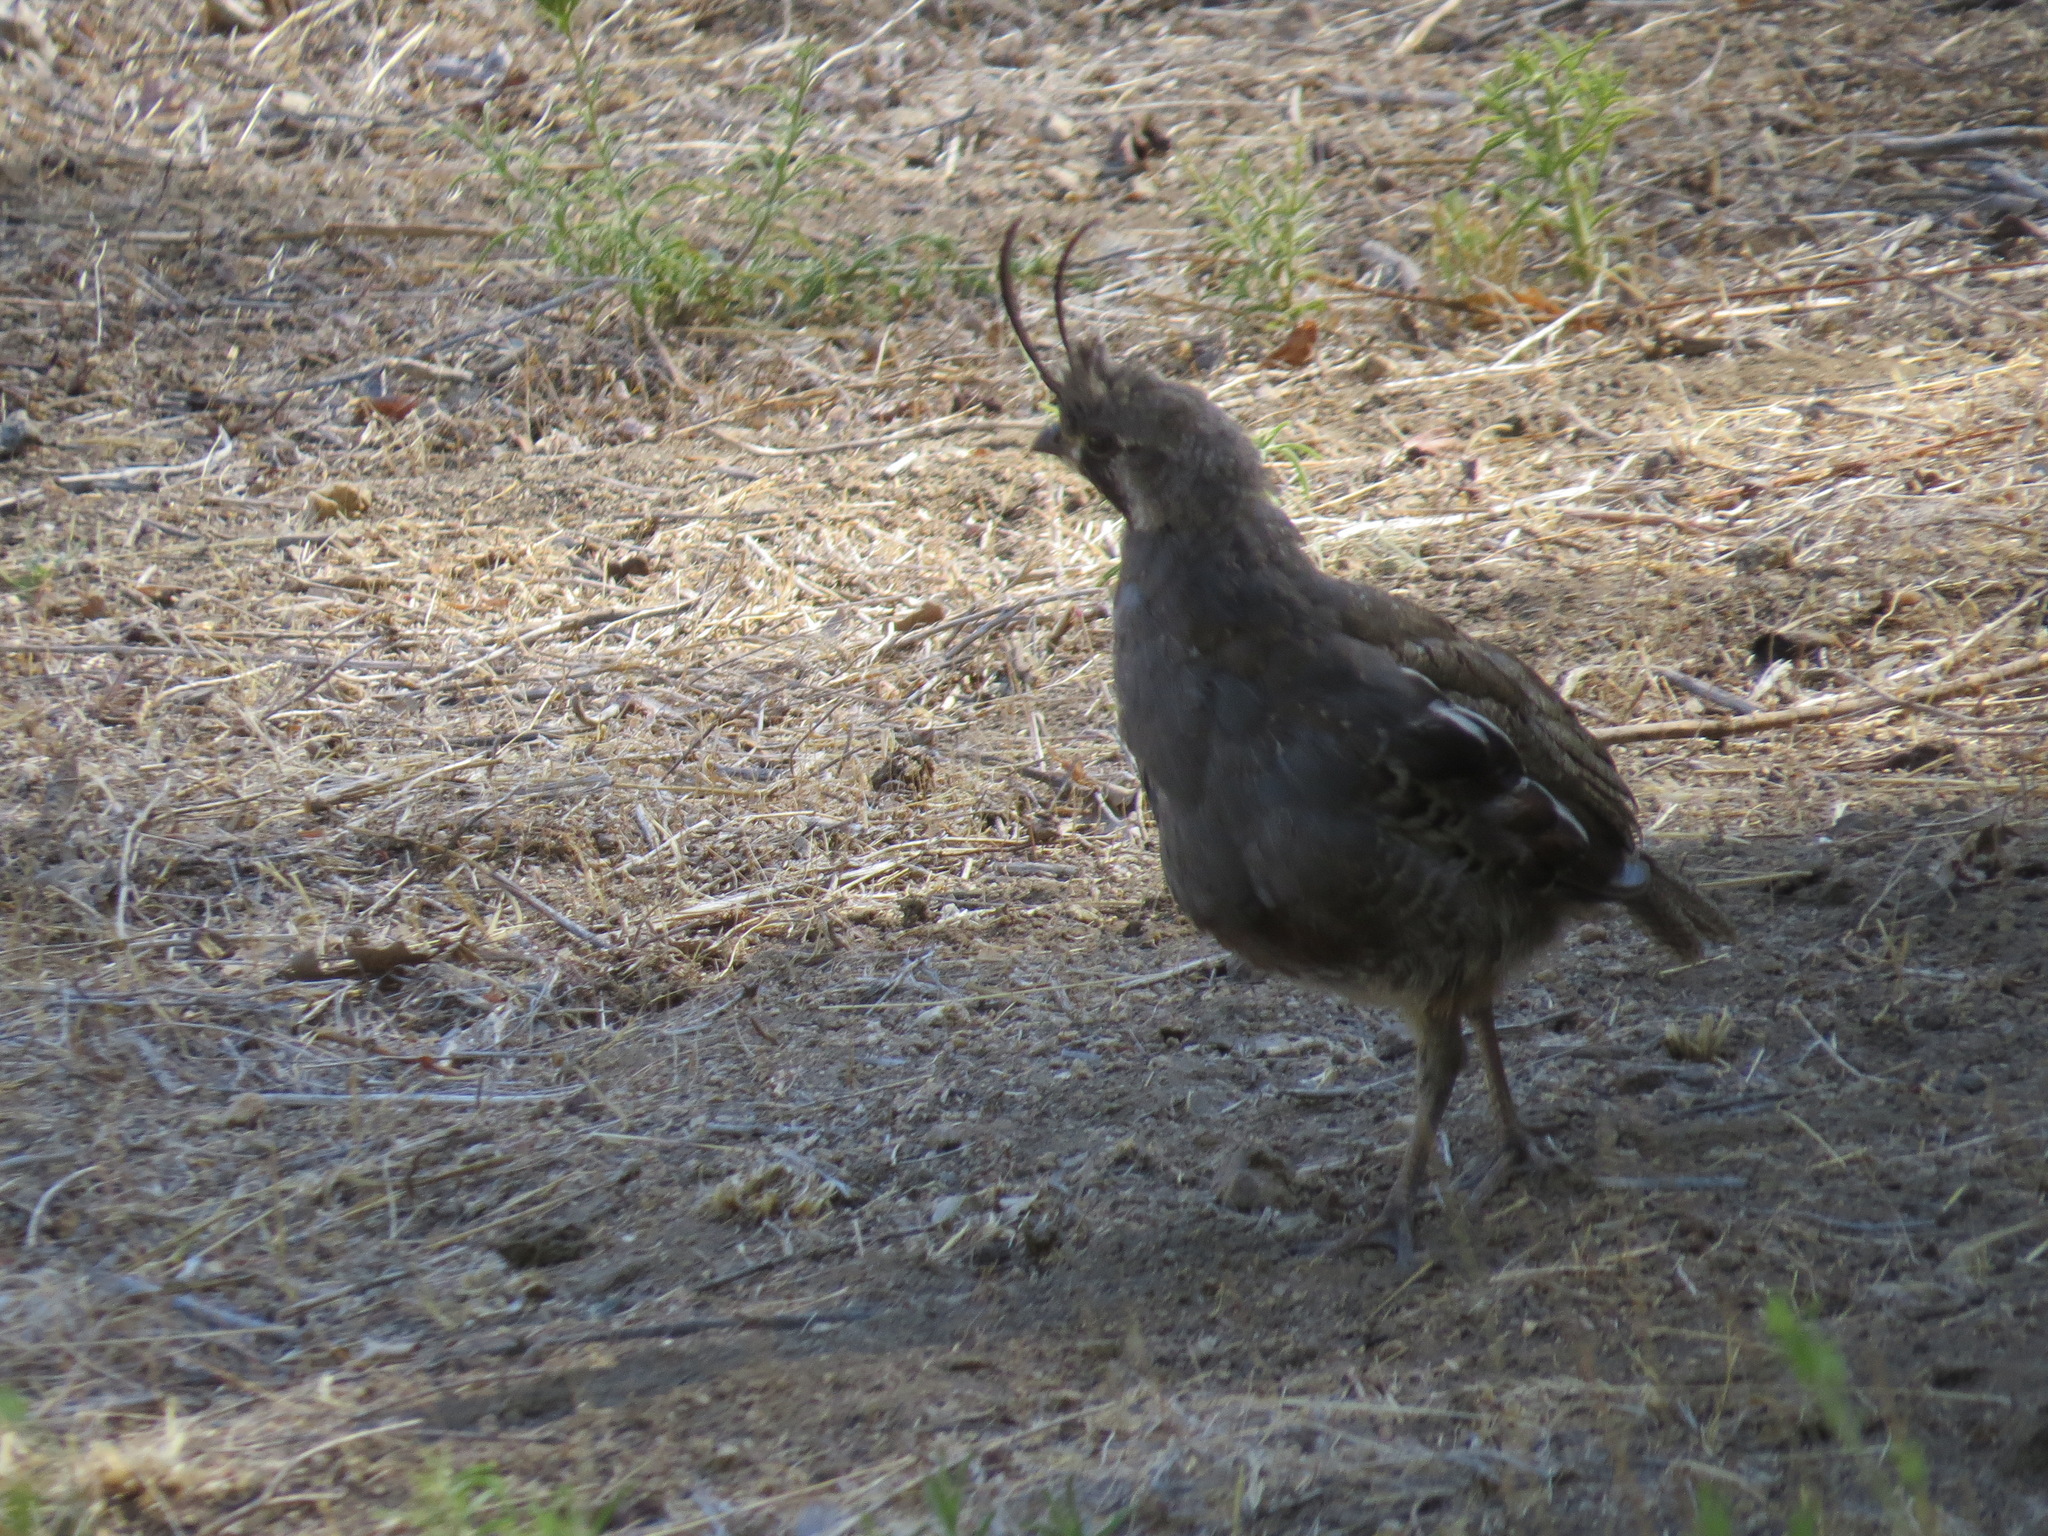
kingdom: Animalia
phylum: Chordata
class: Aves
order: Galliformes
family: Odontophoridae
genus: Oreortyx
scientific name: Oreortyx pictus
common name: Mountain quail
